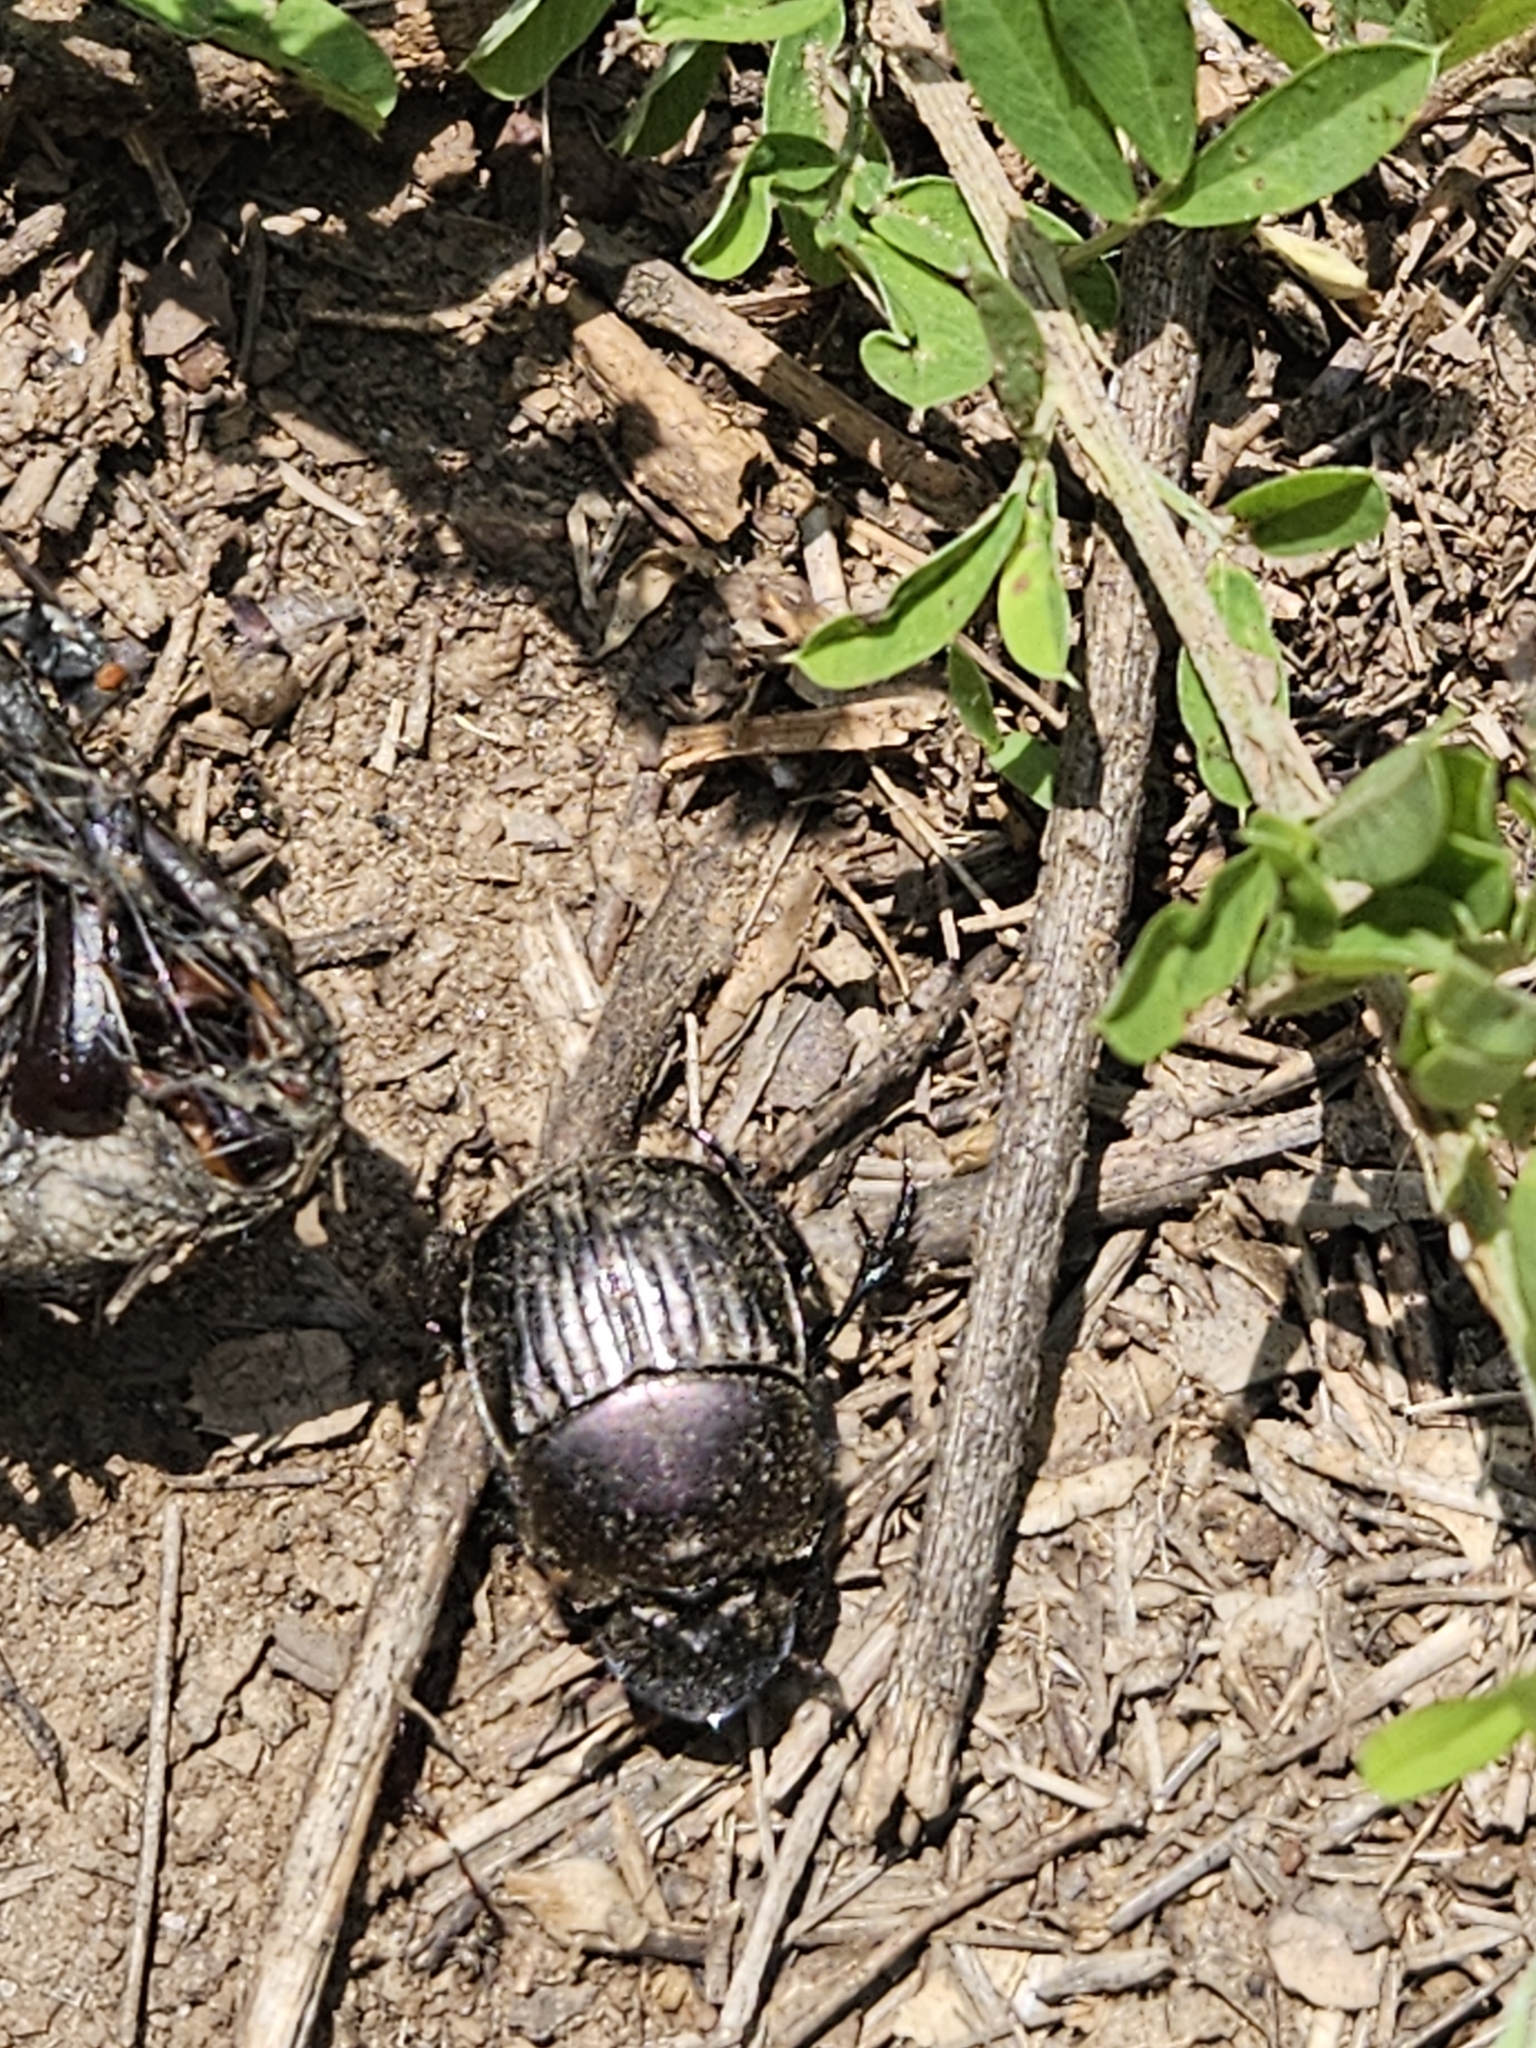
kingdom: Animalia
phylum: Arthropoda
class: Insecta
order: Coleoptera
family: Scarabaeidae
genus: Phanaeus
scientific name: Phanaeus triangularis
